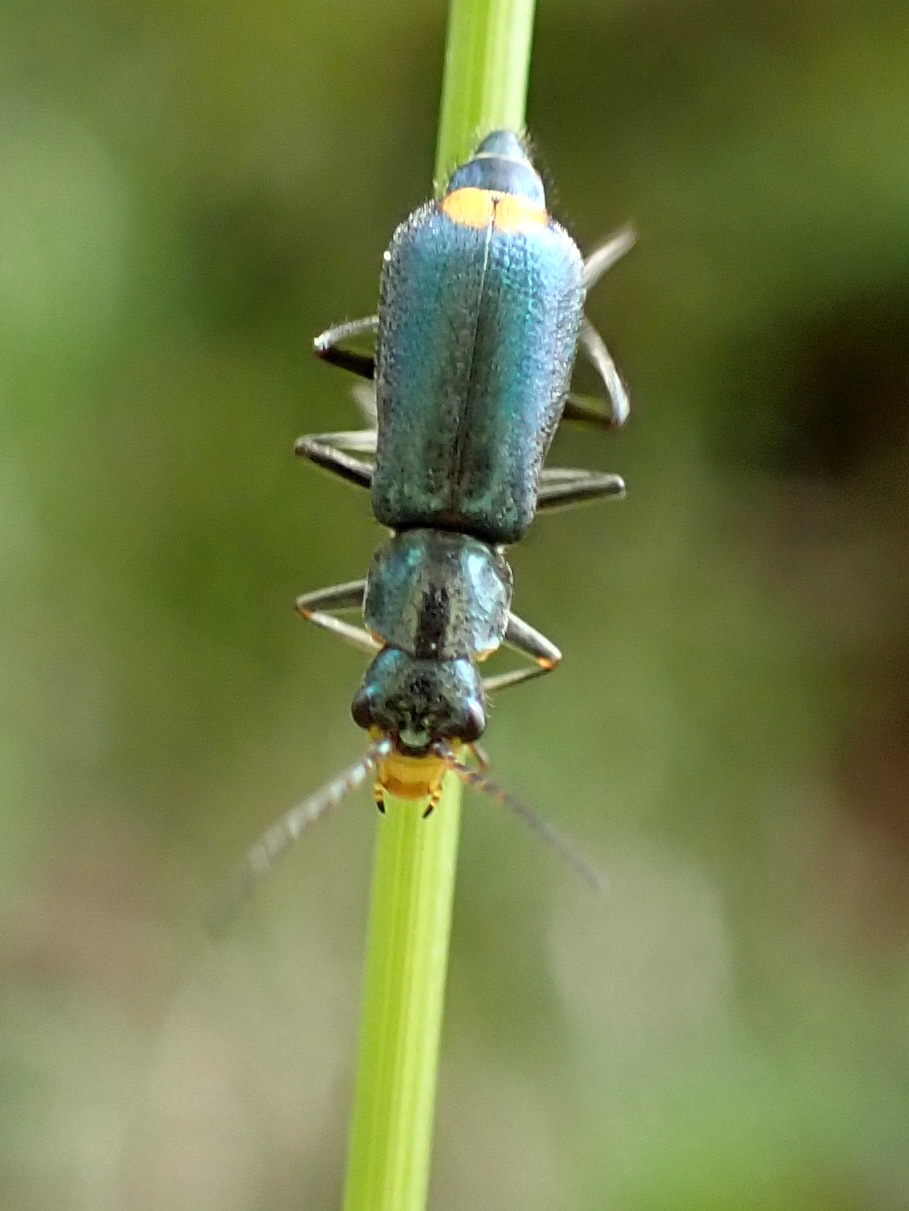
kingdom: Animalia
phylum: Arthropoda
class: Insecta
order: Coleoptera
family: Malachiidae
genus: Clanoptilus
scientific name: Clanoptilus marginellus
